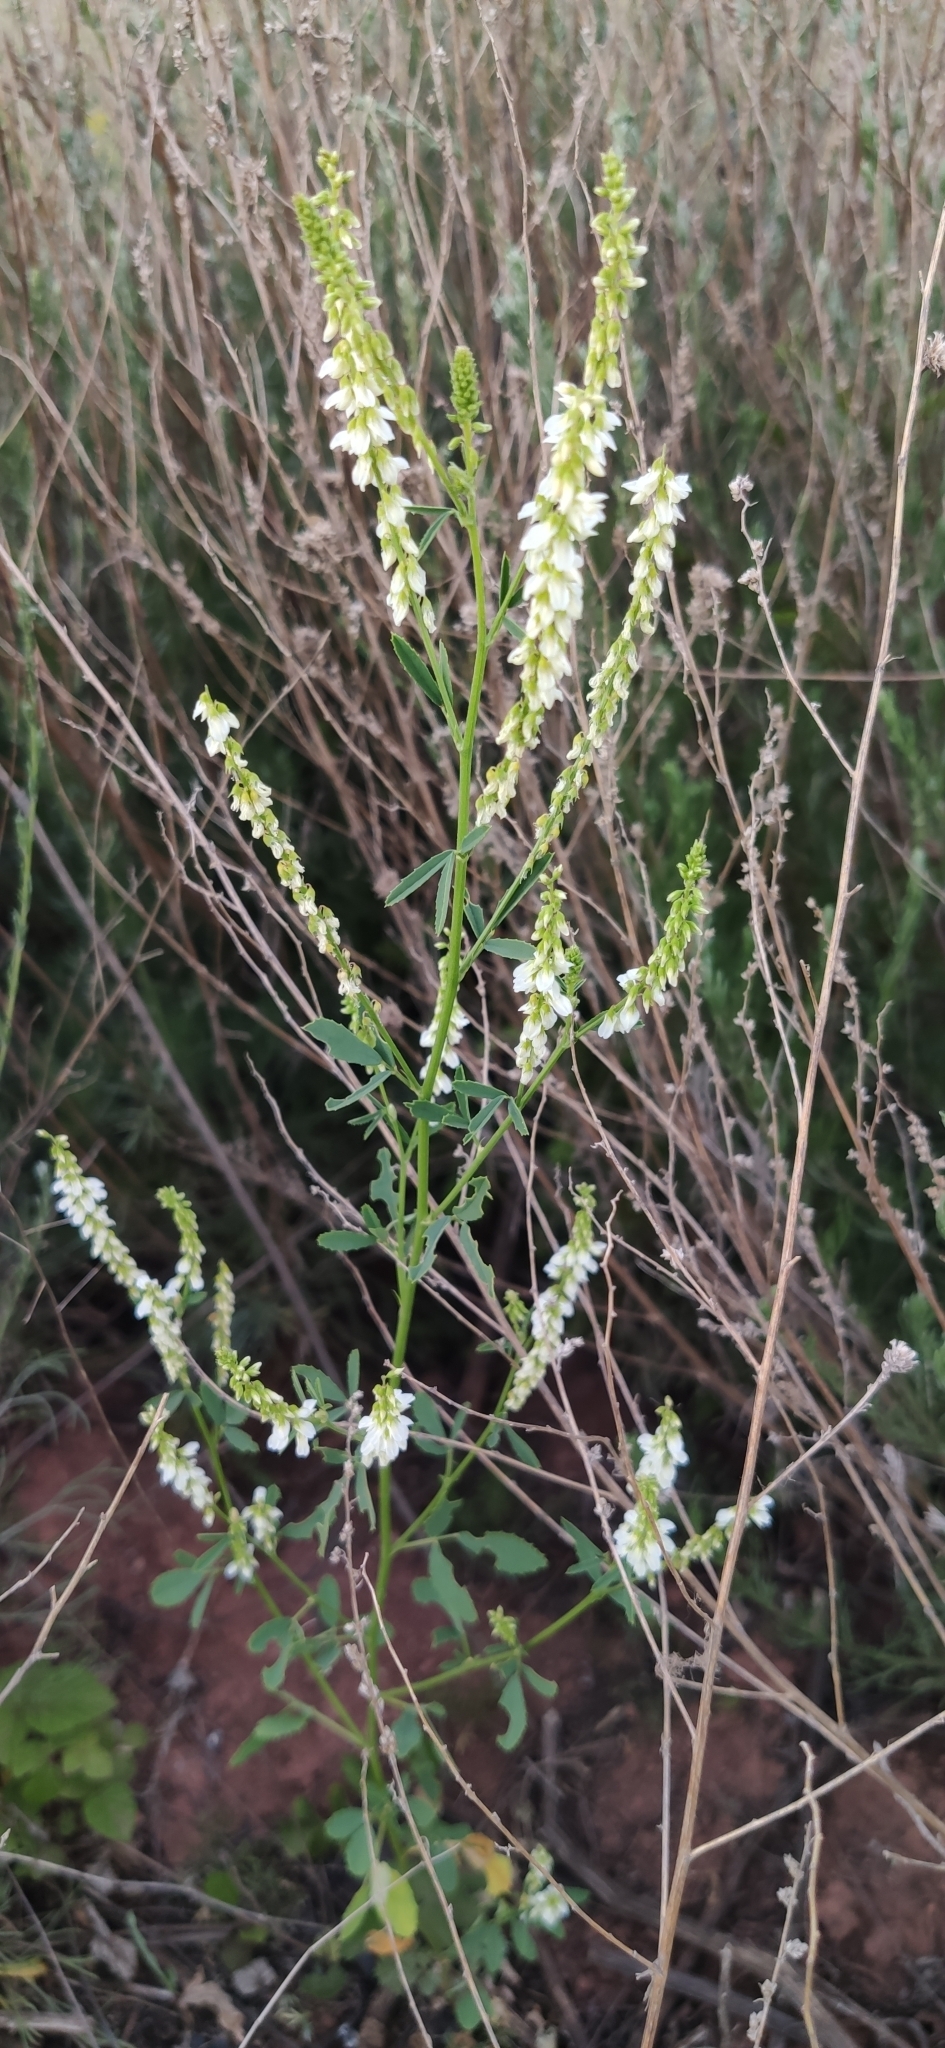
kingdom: Plantae
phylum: Tracheophyta
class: Magnoliopsida
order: Fabales
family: Fabaceae
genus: Melilotus
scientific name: Melilotus albus
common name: White melilot
